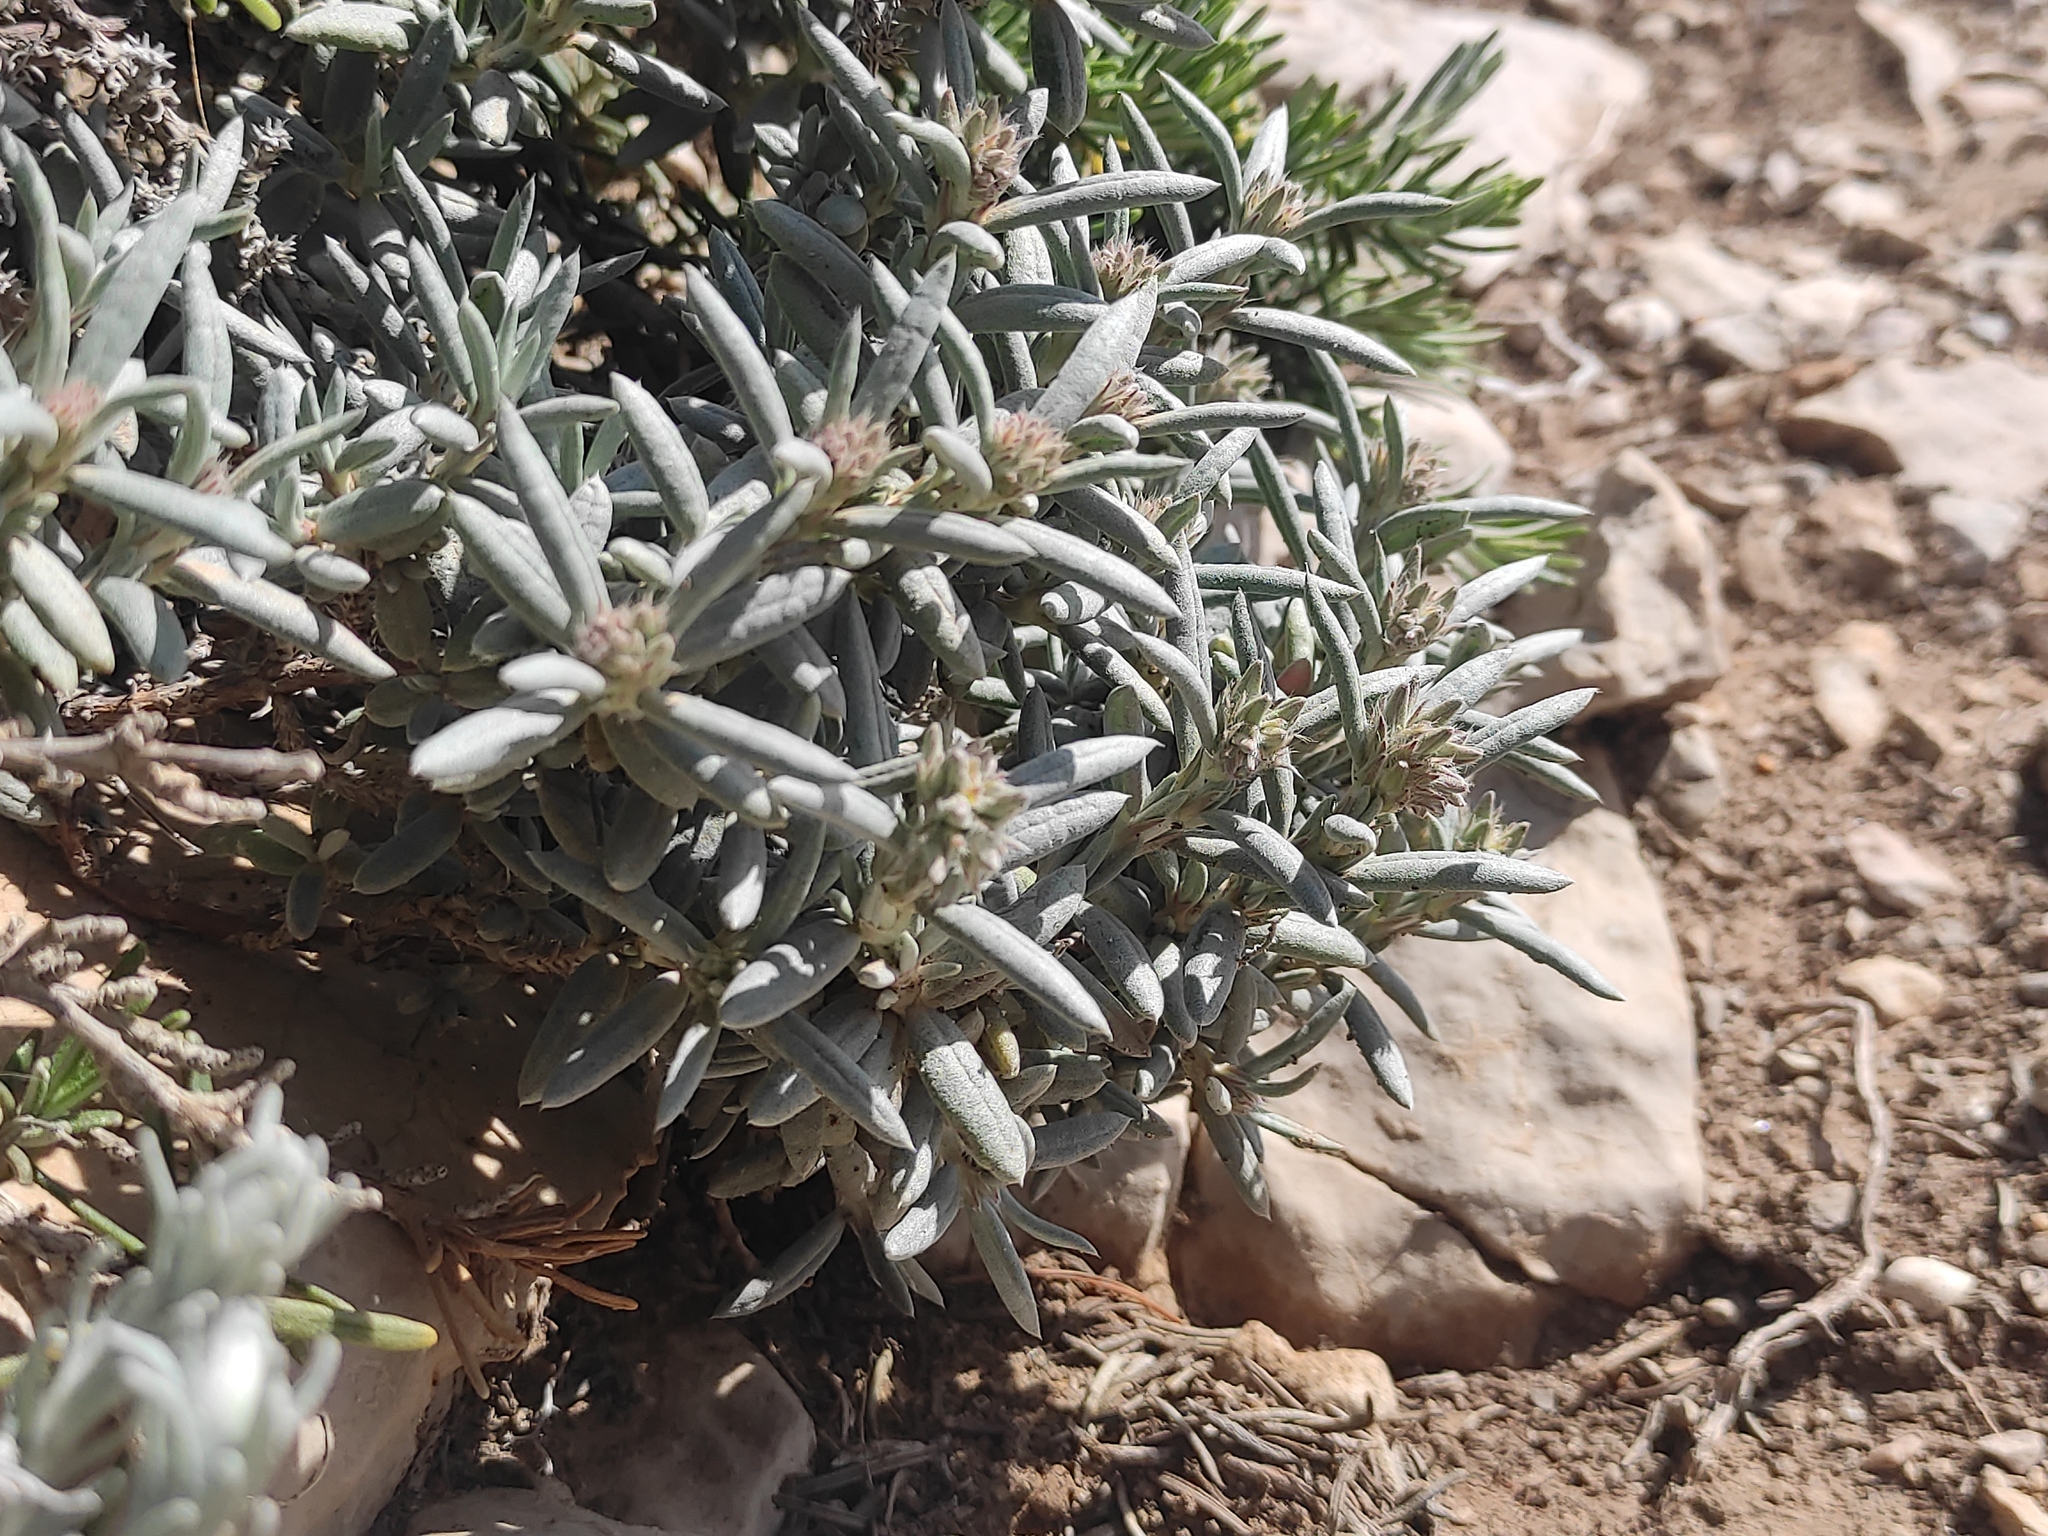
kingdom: Plantae
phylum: Tracheophyta
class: Magnoliopsida
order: Malvales
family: Cistaceae
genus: Helianthemum
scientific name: Helianthemum syriacum
